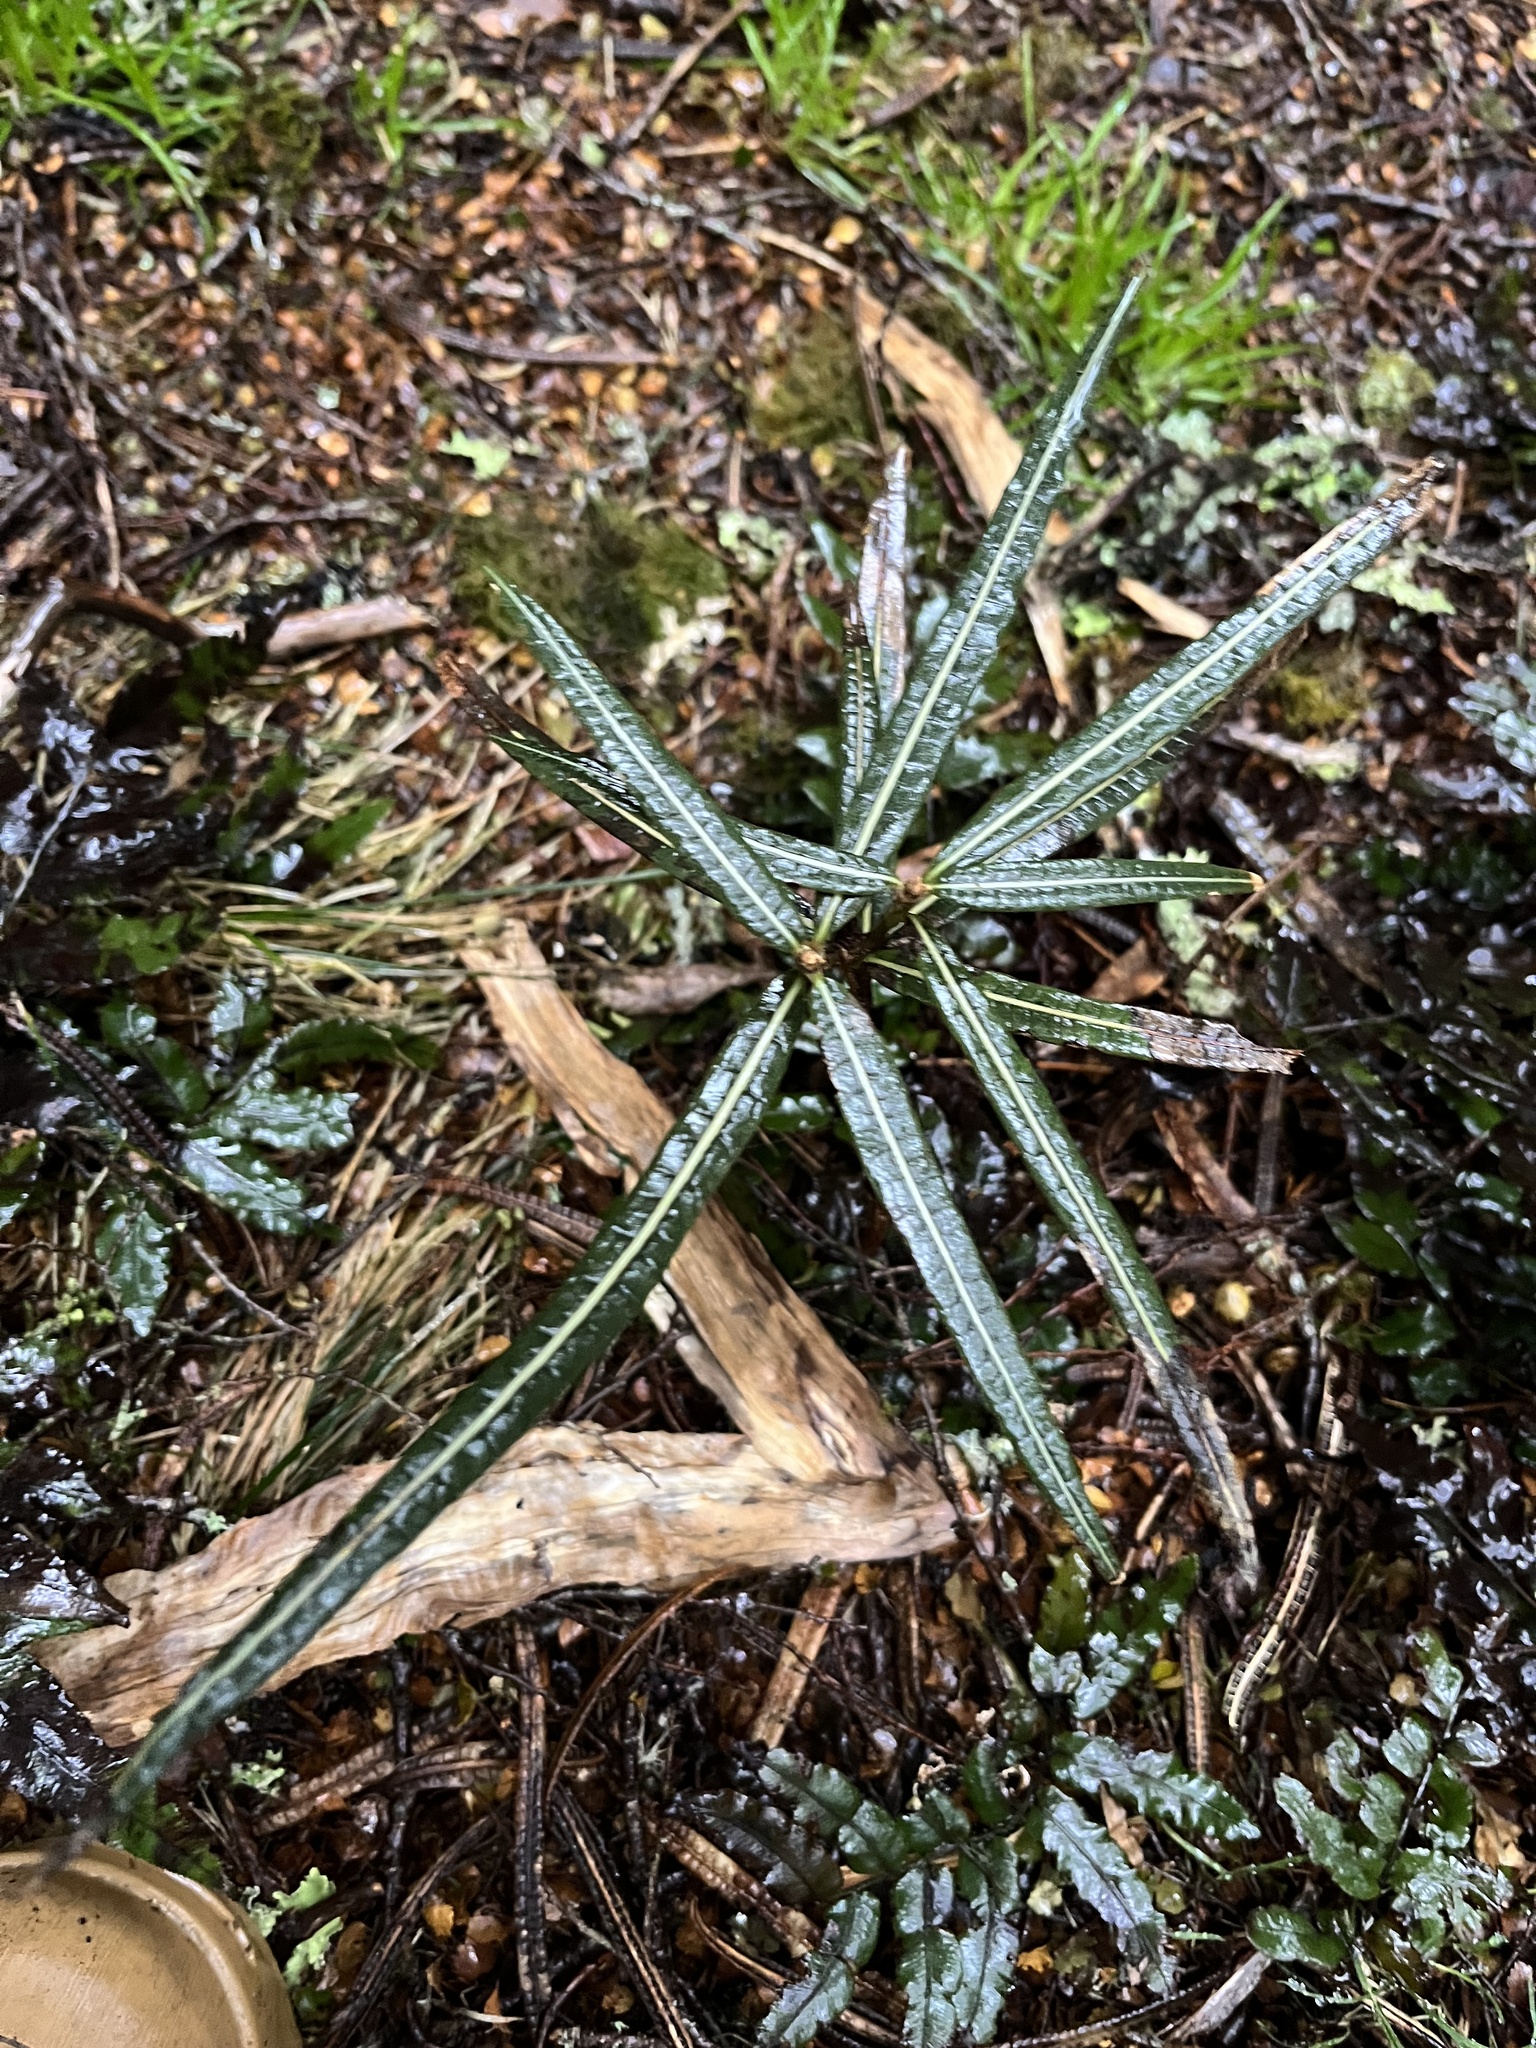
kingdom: Plantae
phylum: Tracheophyta
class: Magnoliopsida
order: Asterales
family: Asteraceae
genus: Olearia
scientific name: Olearia lacunosa
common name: Lancewood tree daisy
